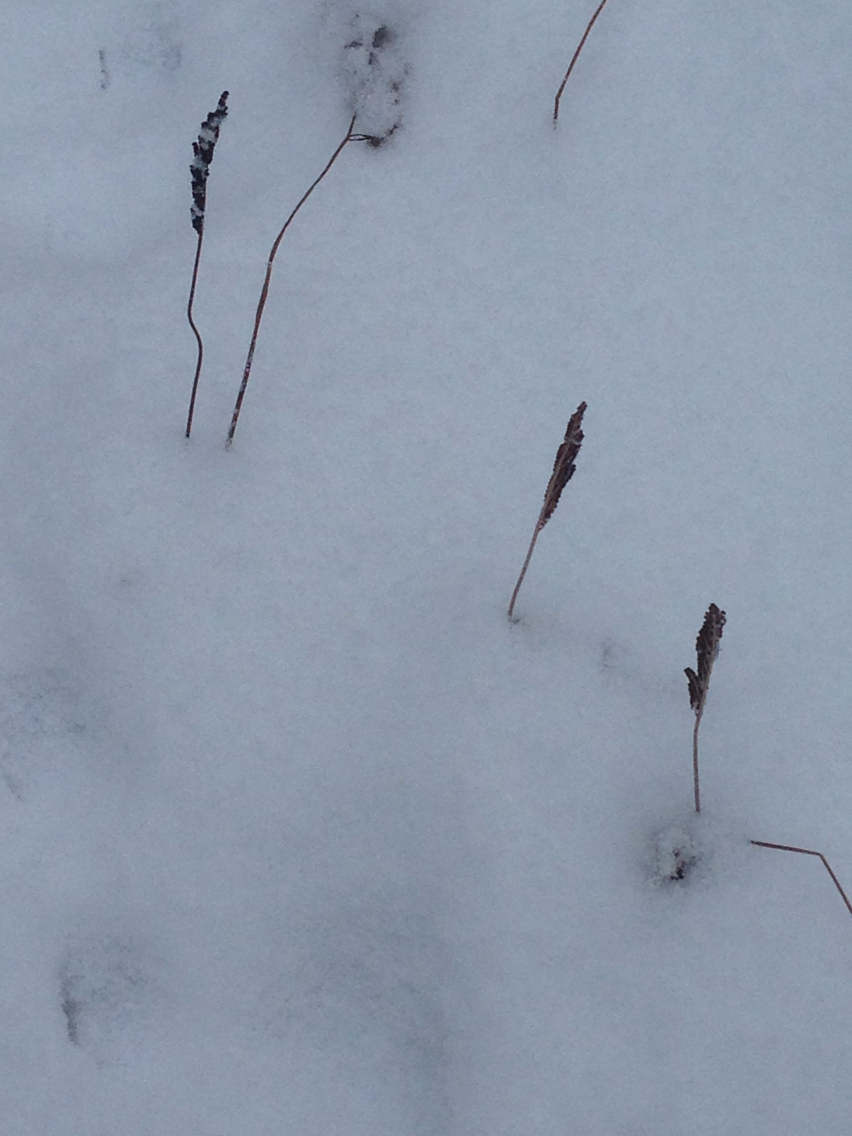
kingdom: Plantae
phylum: Tracheophyta
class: Polypodiopsida
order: Polypodiales
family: Onocleaceae
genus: Onoclea
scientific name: Onoclea sensibilis
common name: Sensitive fern
